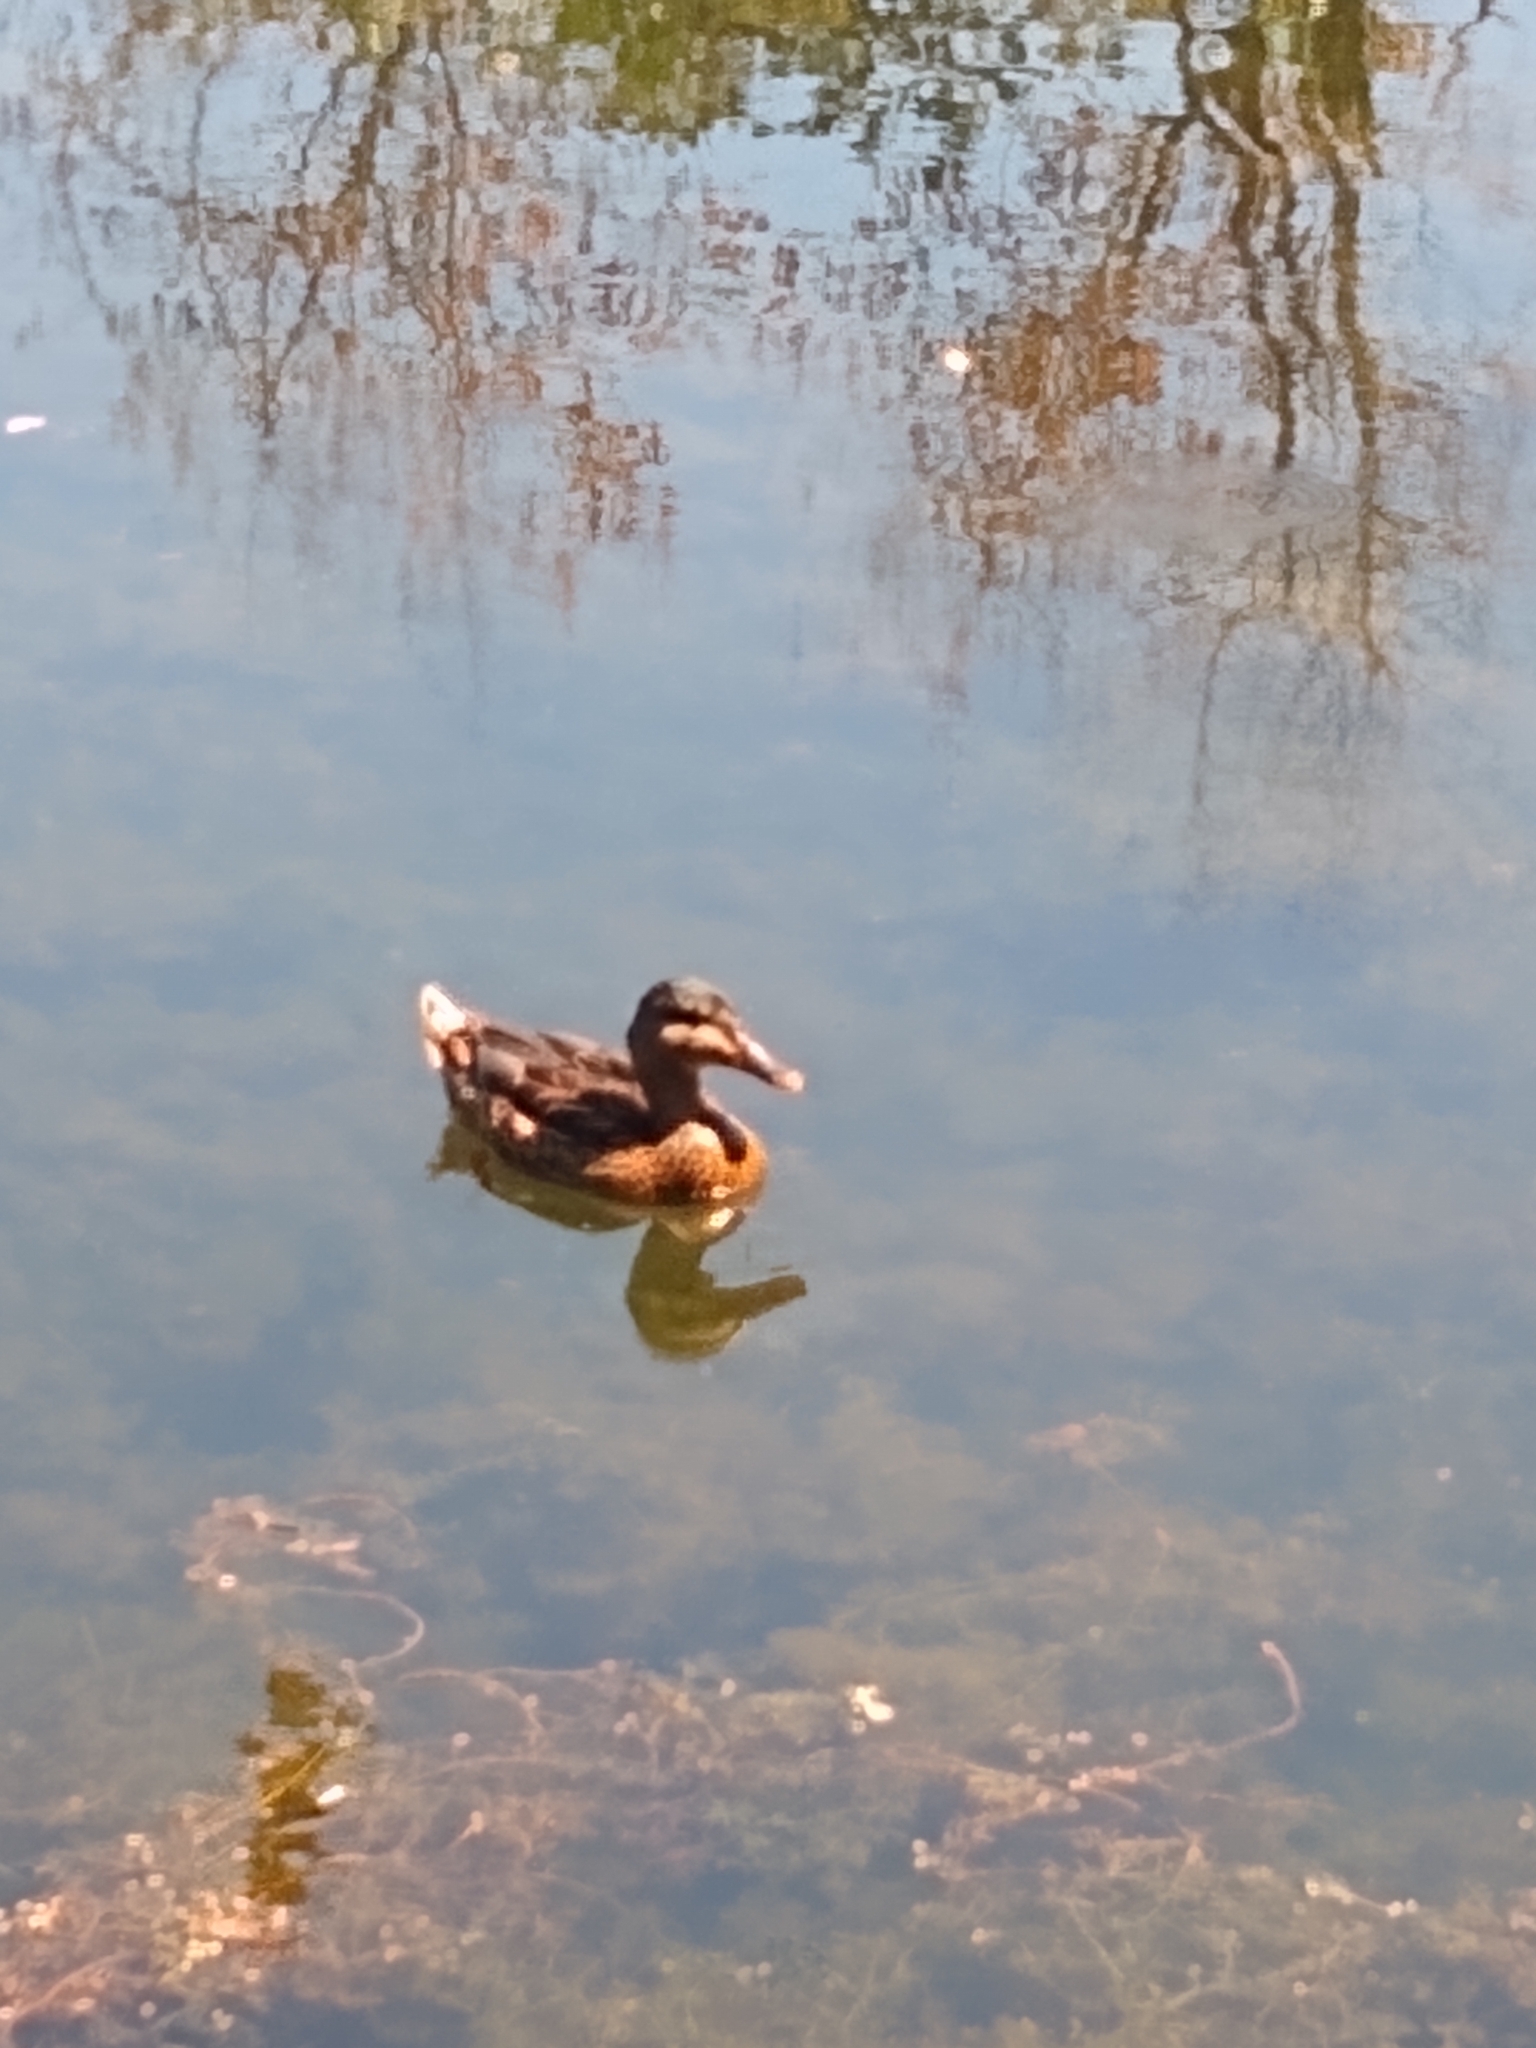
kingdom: Animalia
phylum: Chordata
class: Aves
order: Anseriformes
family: Anatidae
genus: Anas
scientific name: Anas platyrhynchos
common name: Mallard
